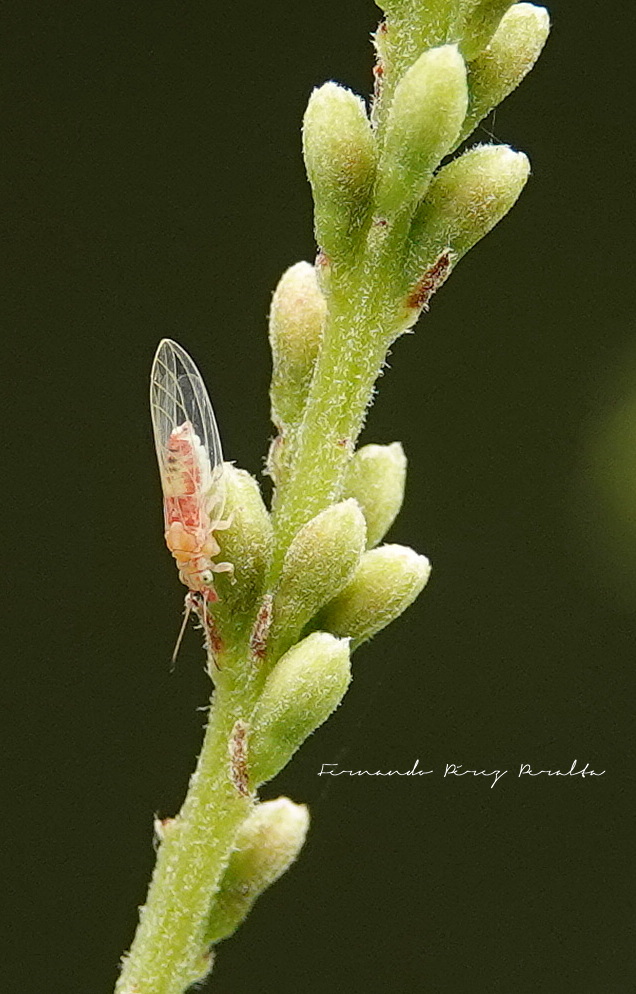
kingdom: Animalia
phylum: Arthropoda
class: Insecta
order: Hemiptera
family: Aphalaridae
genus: Glycaspis
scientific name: Glycaspis brimblecombei
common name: Red gum lerp psyllid
